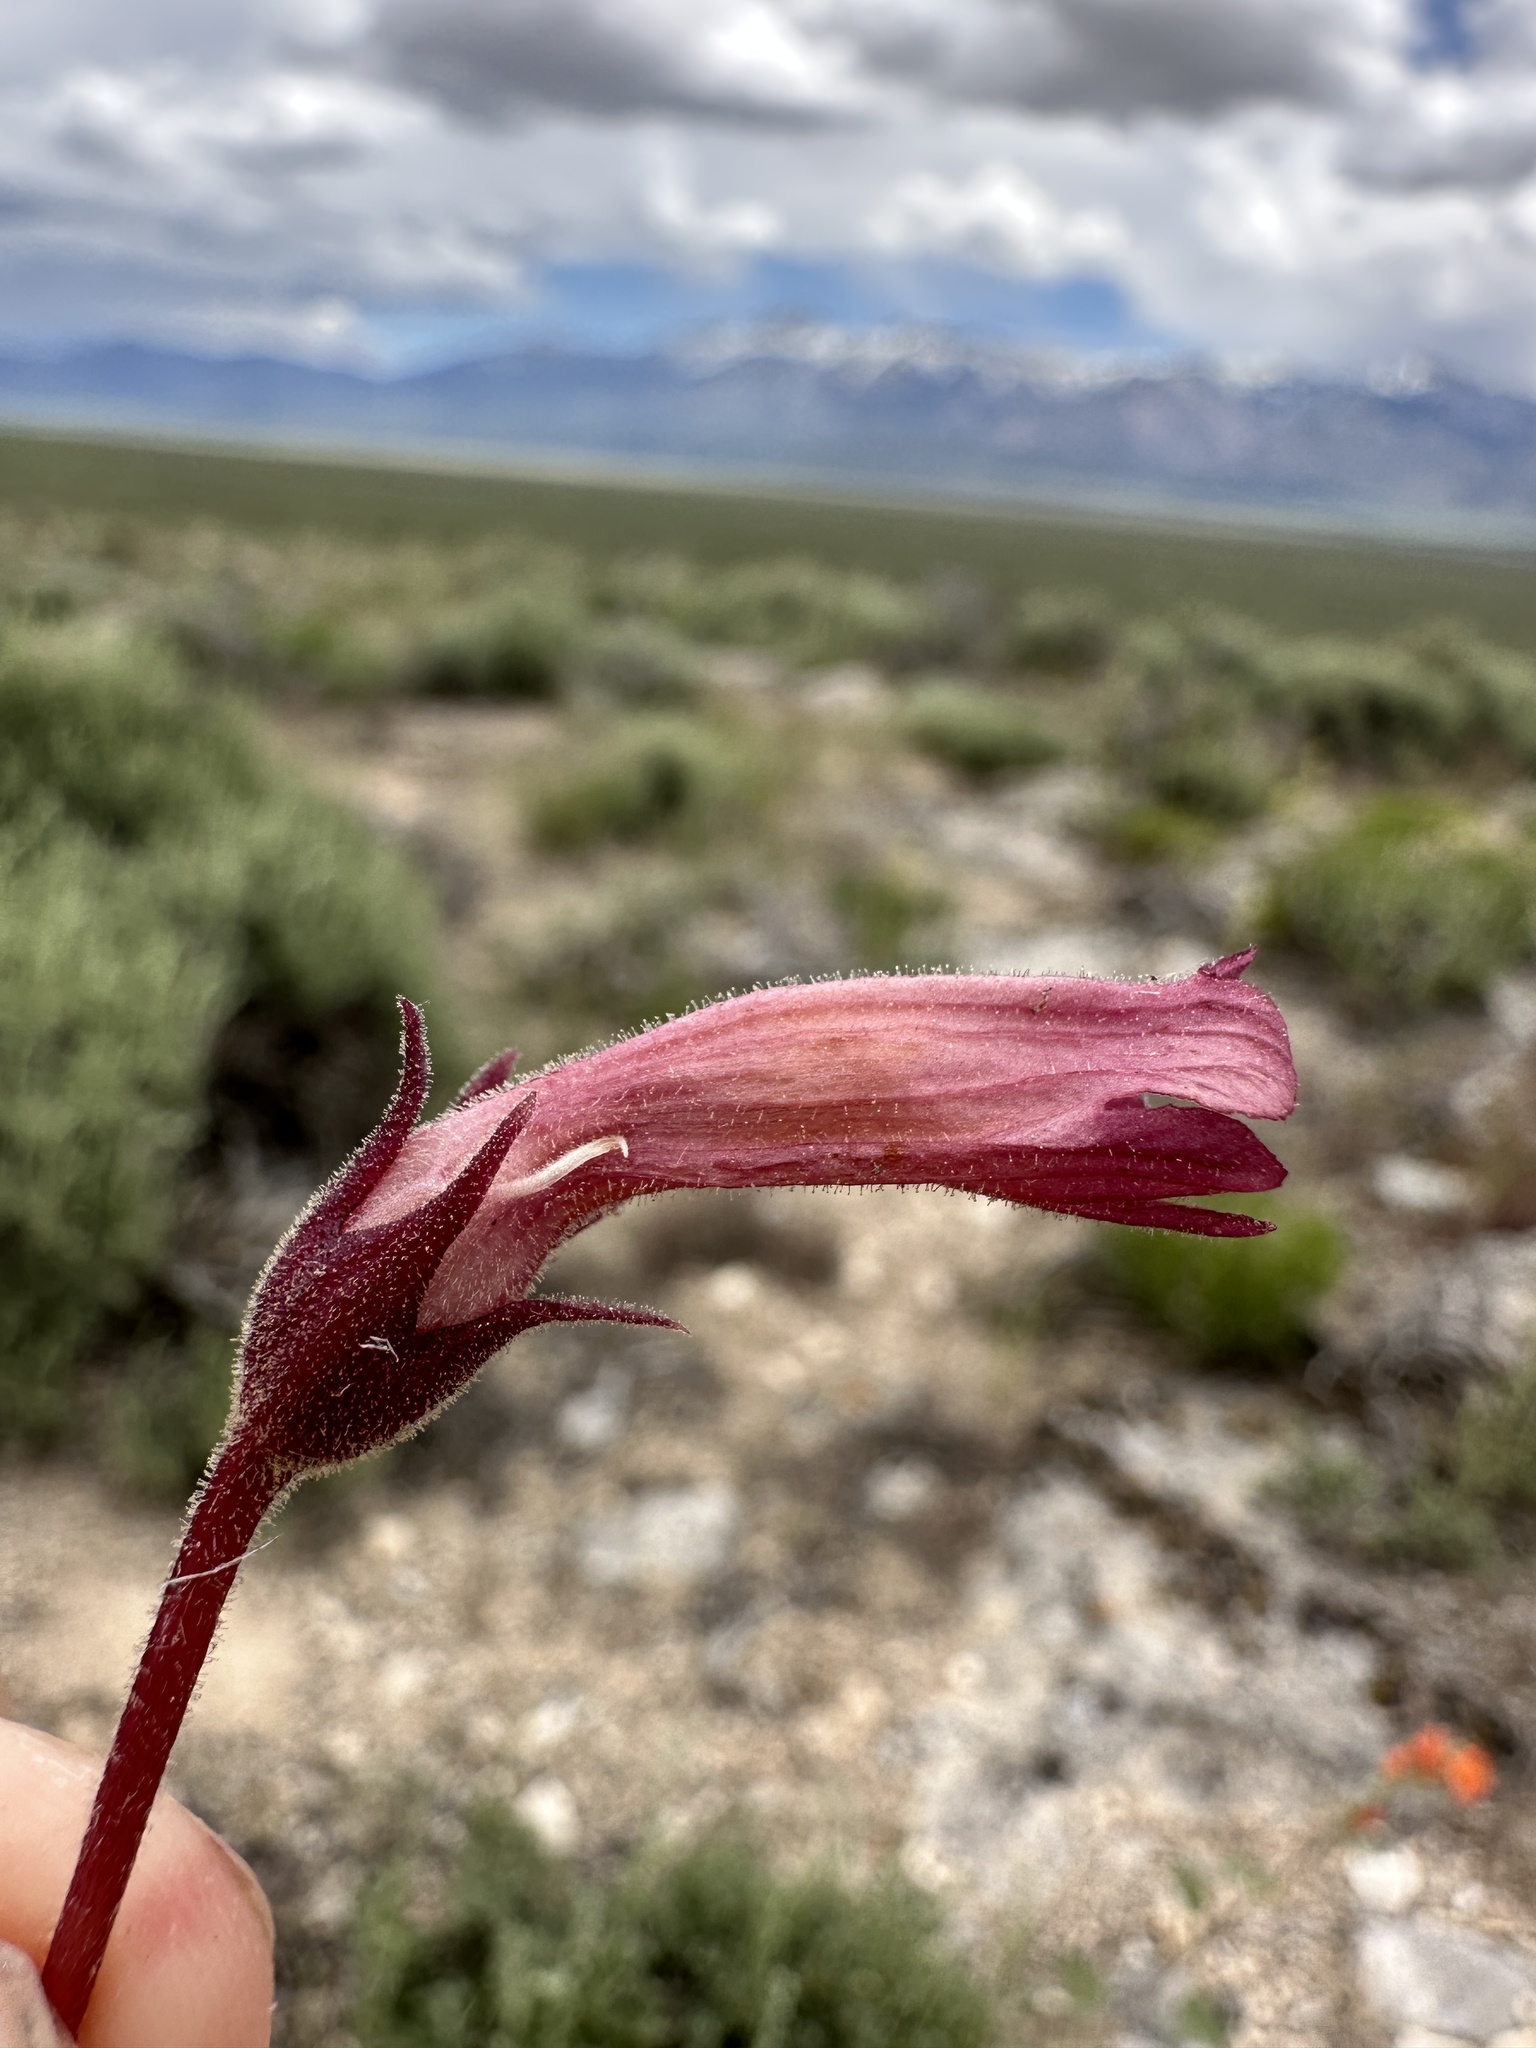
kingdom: Plantae
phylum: Tracheophyta
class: Magnoliopsida
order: Lamiales
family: Orobanchaceae
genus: Aphyllon
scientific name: Aphyllon fasciculatum
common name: Clustered broomrape
